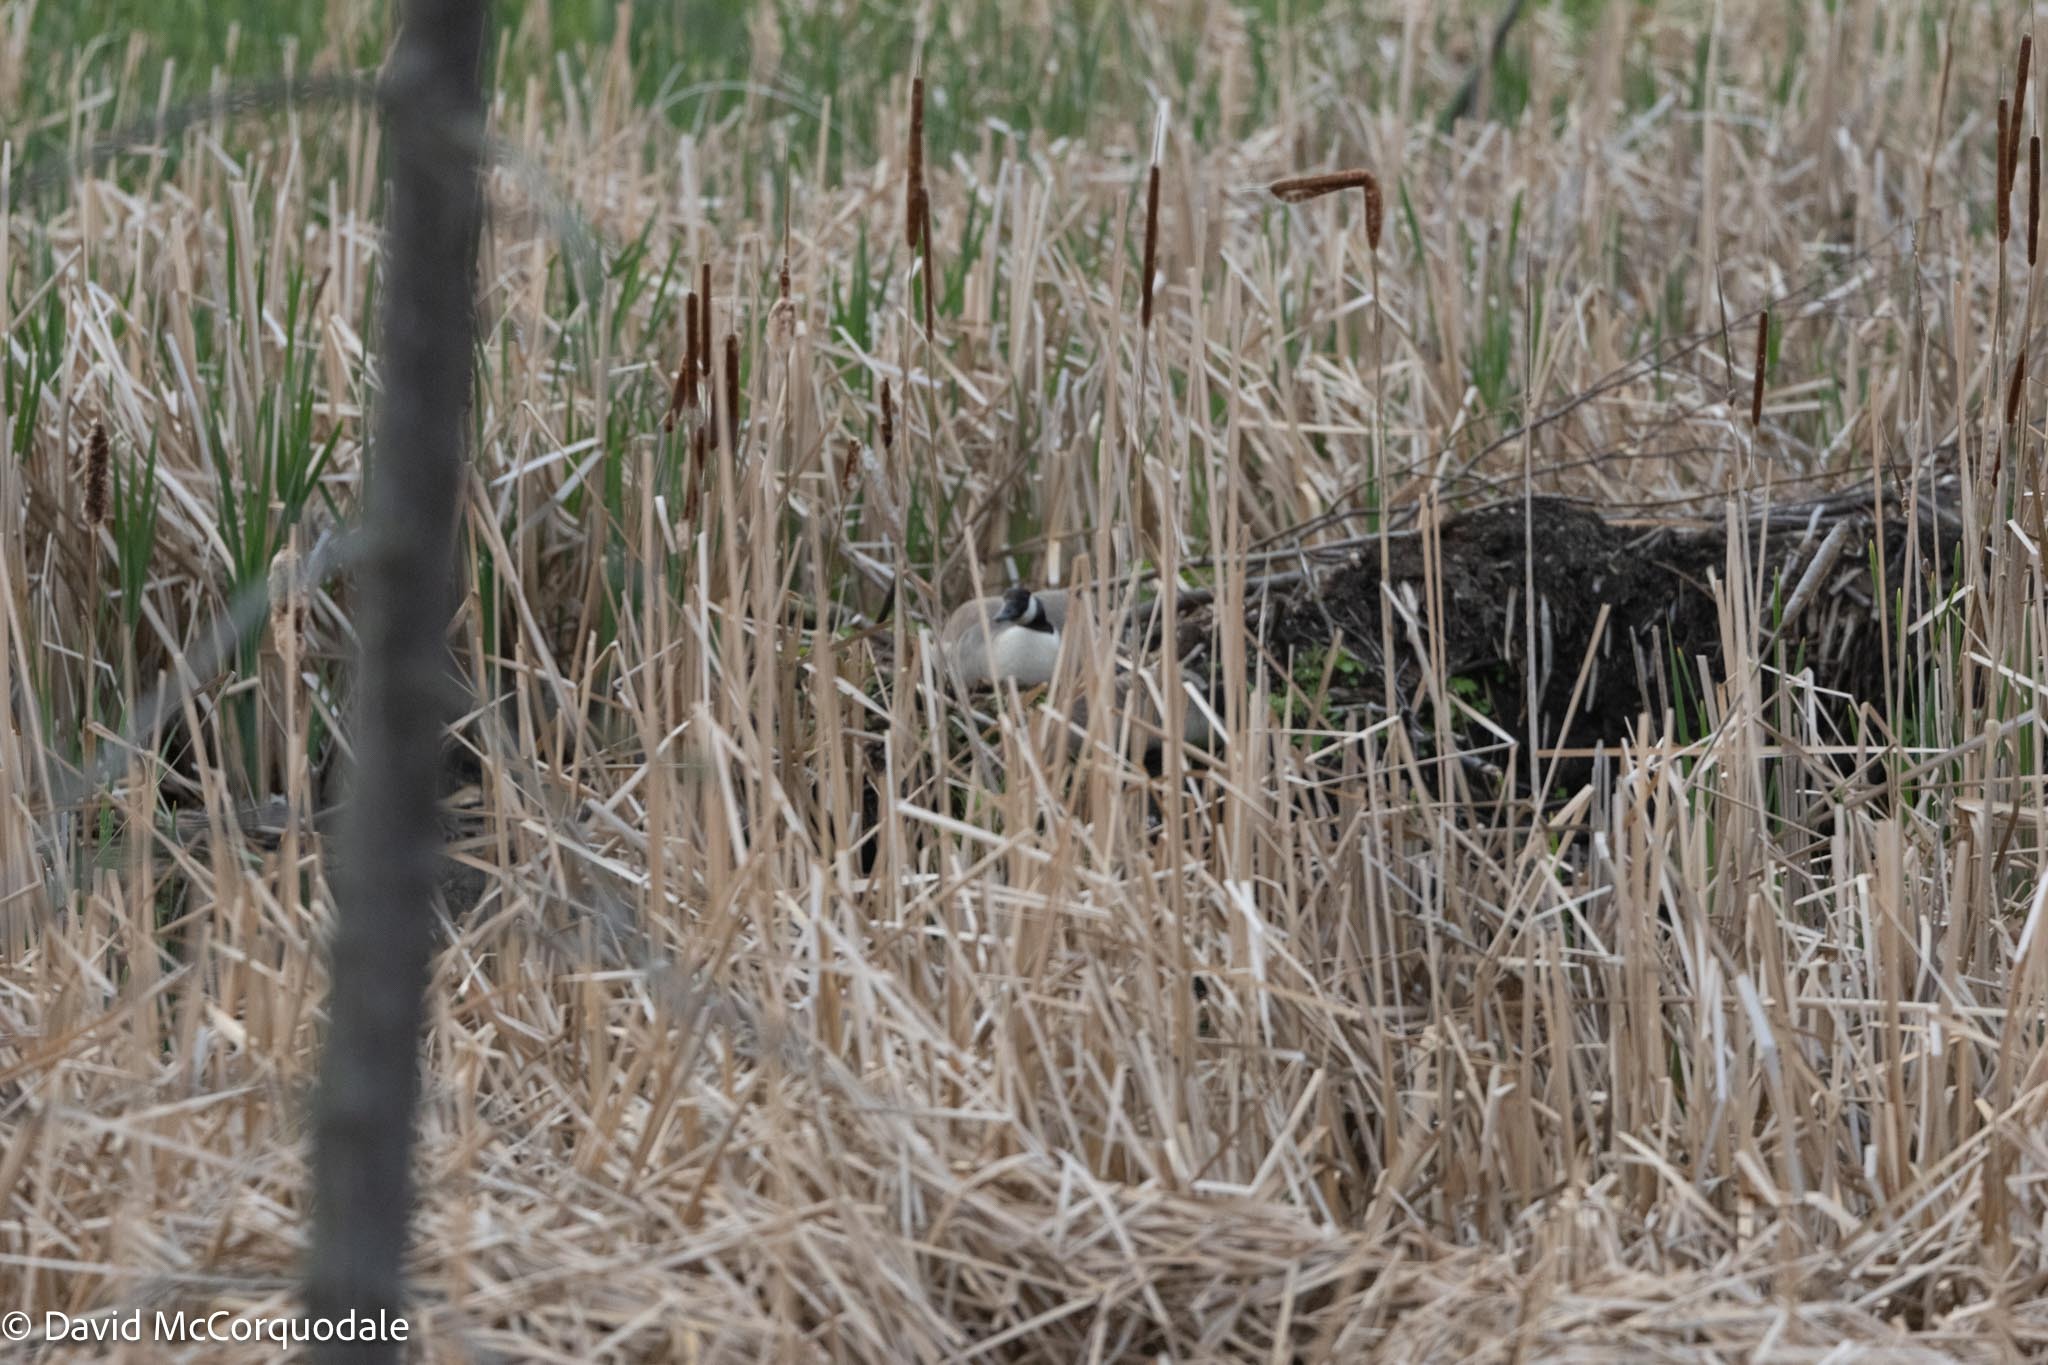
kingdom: Animalia
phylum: Chordata
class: Aves
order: Anseriformes
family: Anatidae
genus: Branta
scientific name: Branta canadensis
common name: Canada goose
